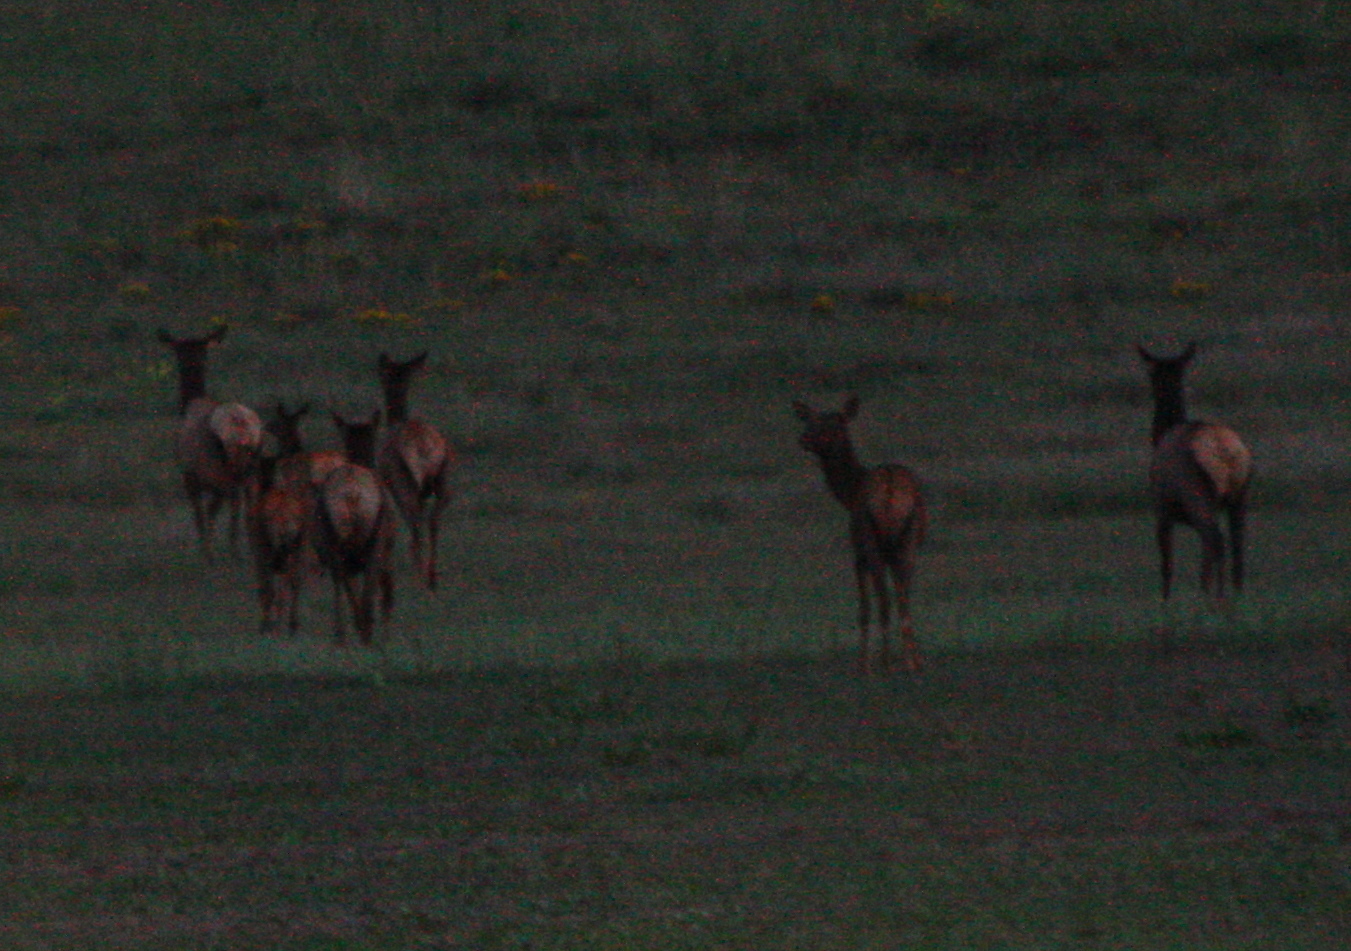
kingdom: Animalia
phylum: Chordata
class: Mammalia
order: Artiodactyla
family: Cervidae
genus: Cervus
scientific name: Cervus elaphus
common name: Red deer
